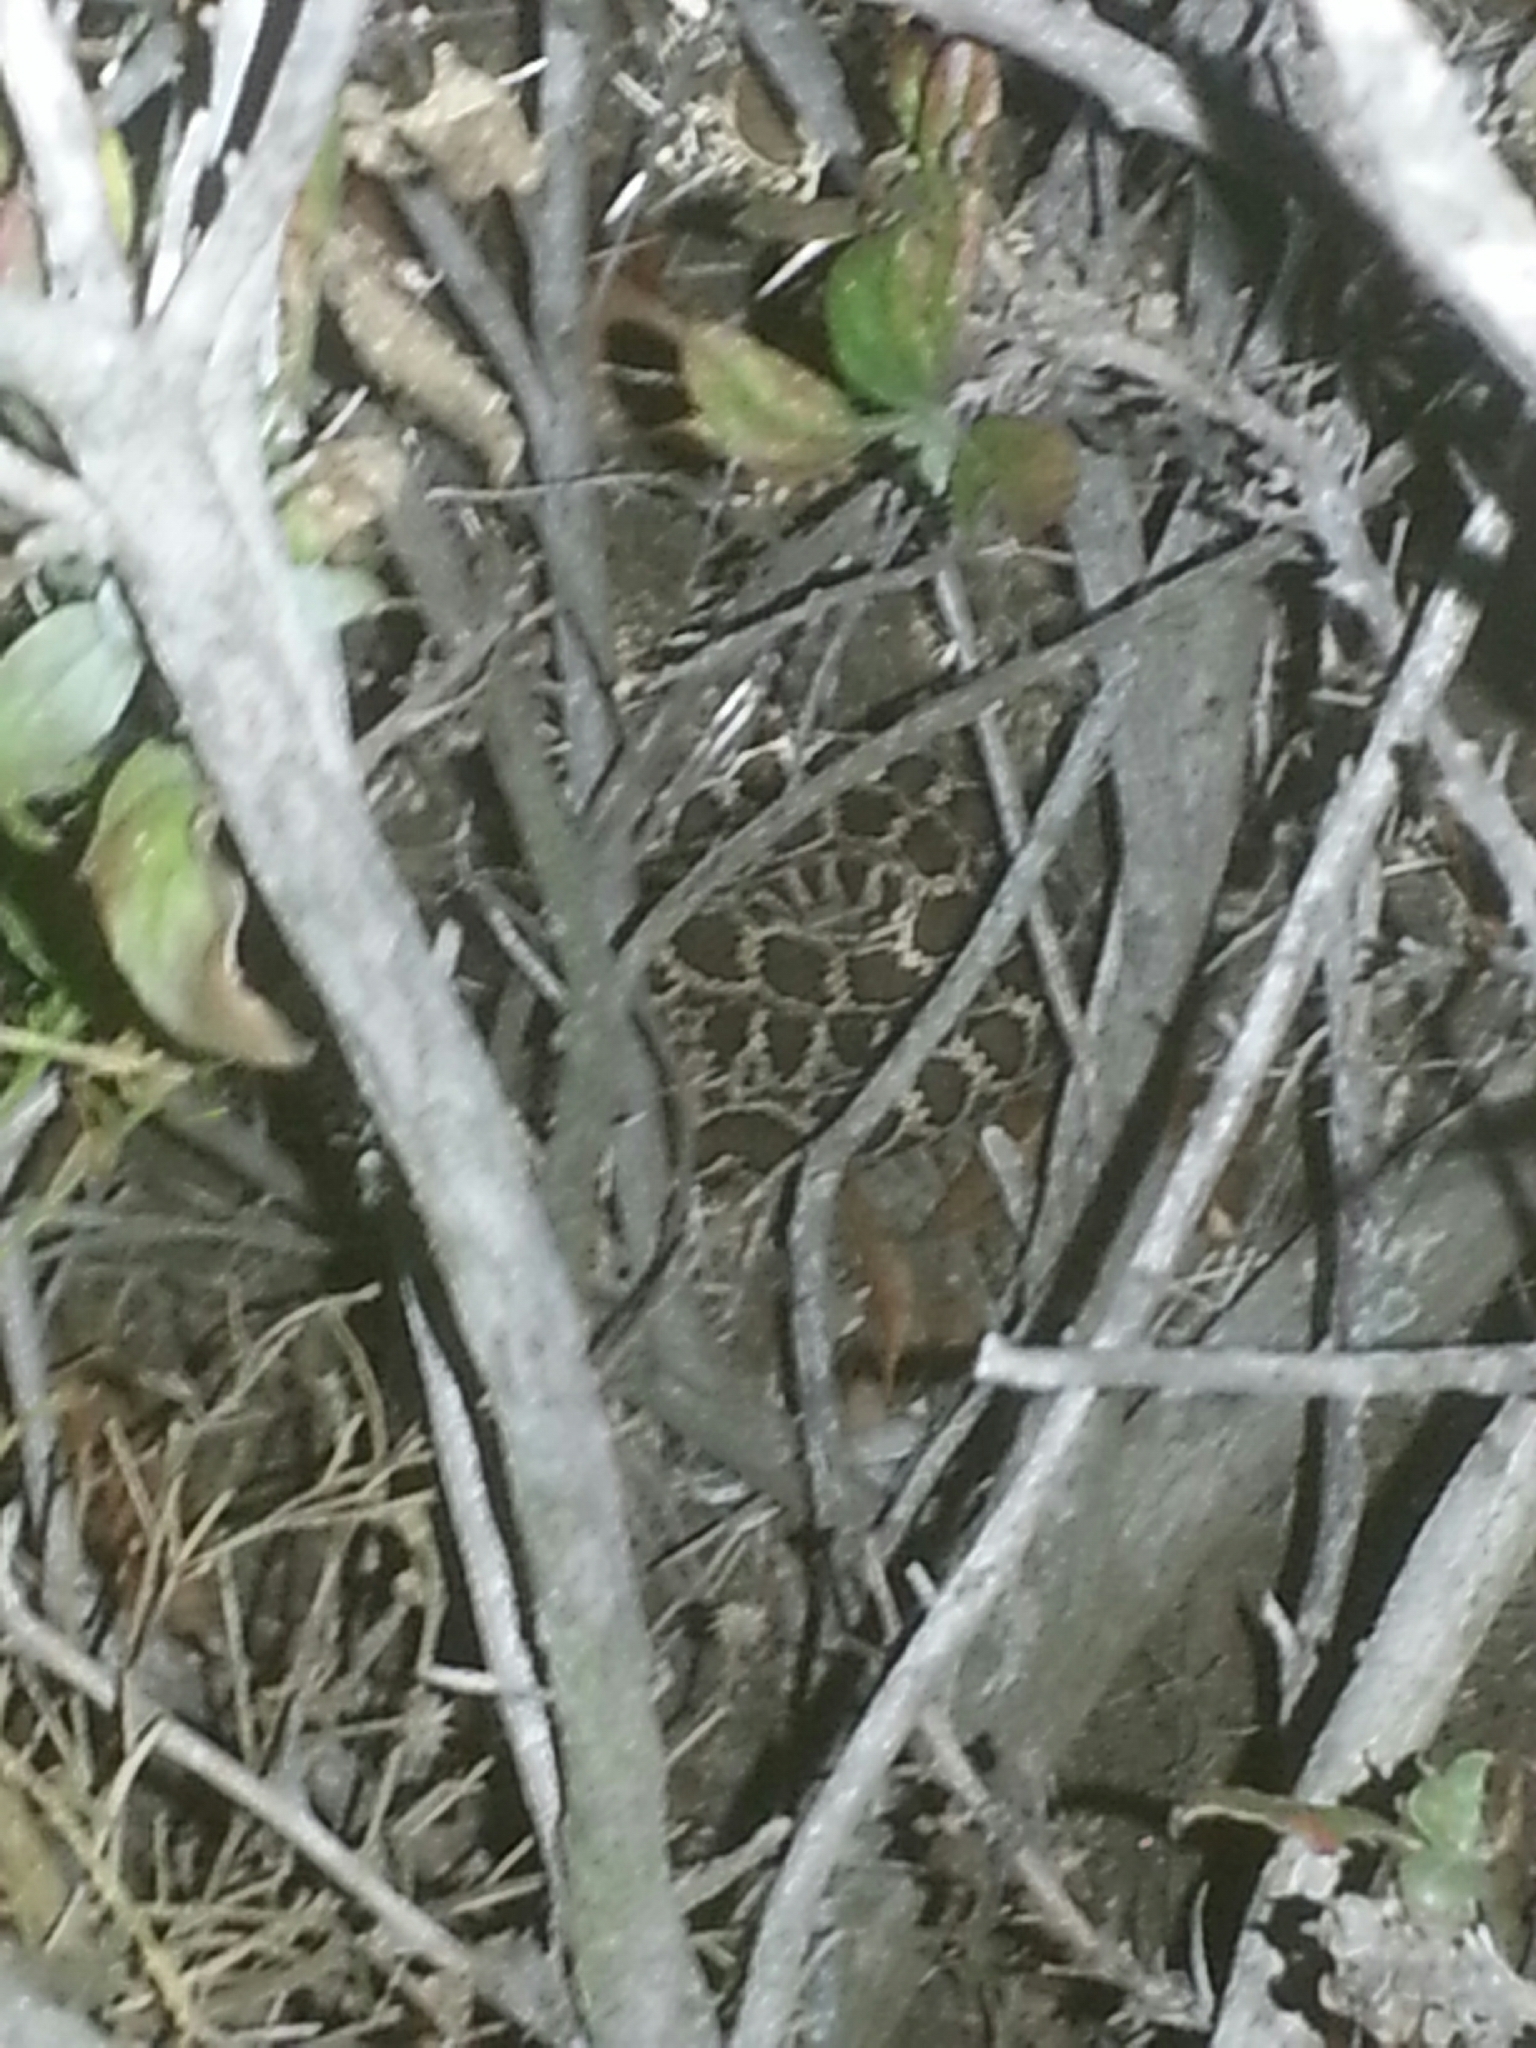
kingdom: Animalia
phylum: Chordata
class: Squamata
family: Viperidae
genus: Crotalus
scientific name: Crotalus oreganus
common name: Abyssus
